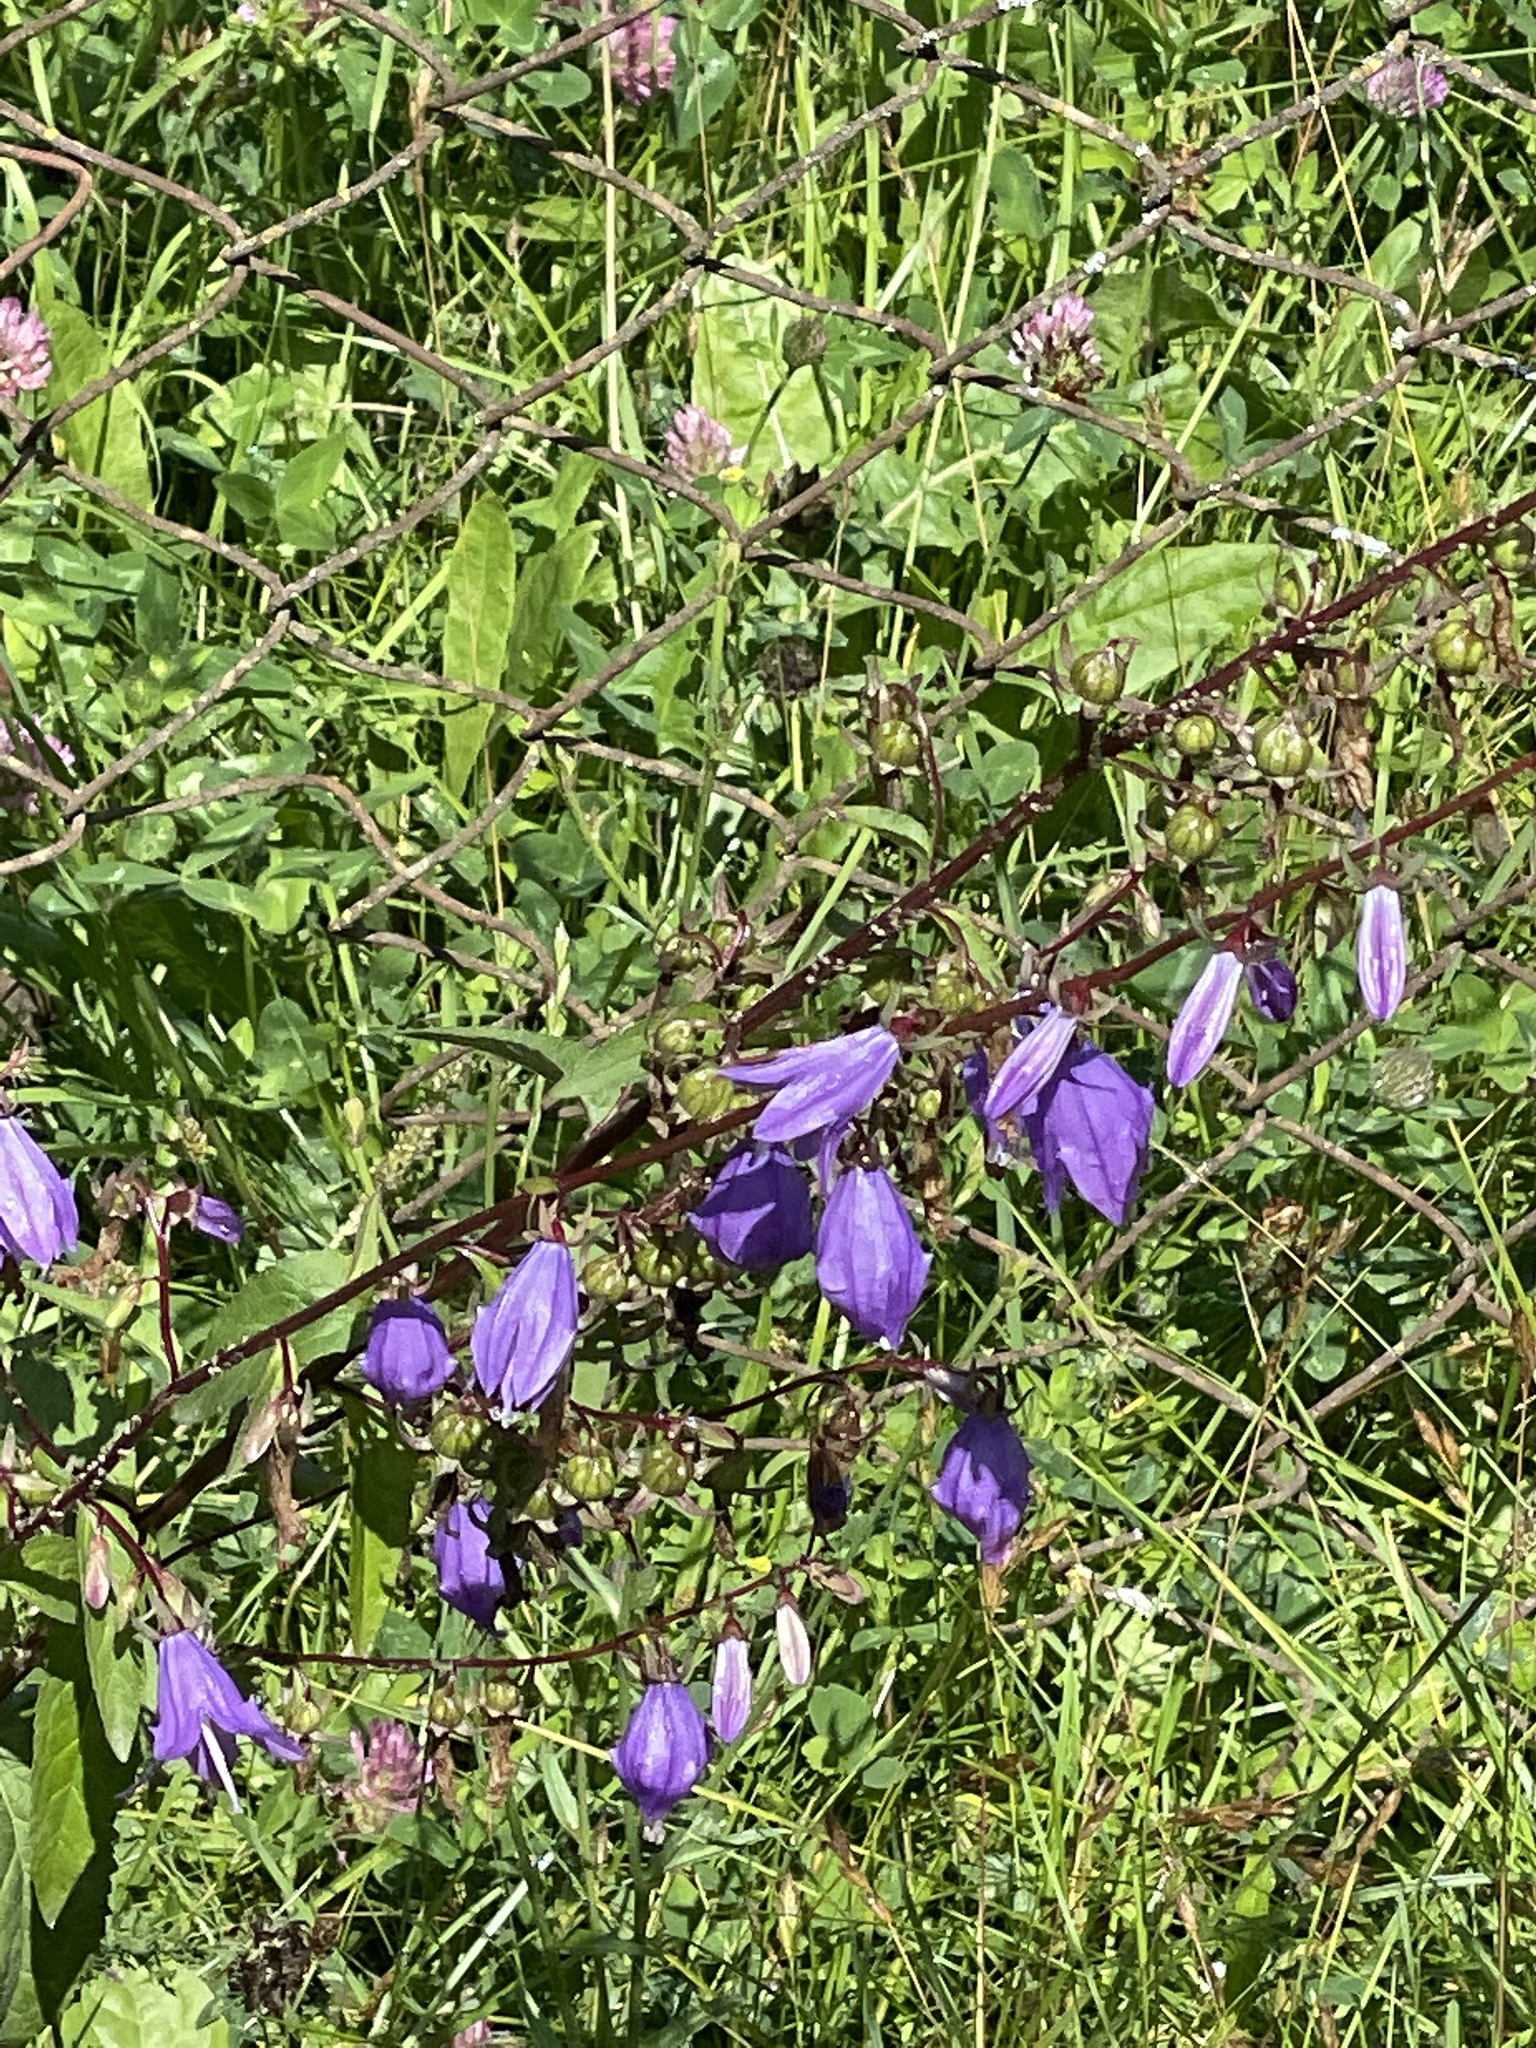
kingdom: Plantae
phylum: Tracheophyta
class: Magnoliopsida
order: Asterales
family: Campanulaceae
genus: Campanula
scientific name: Campanula rapunculoides
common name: Creeping bellflower
